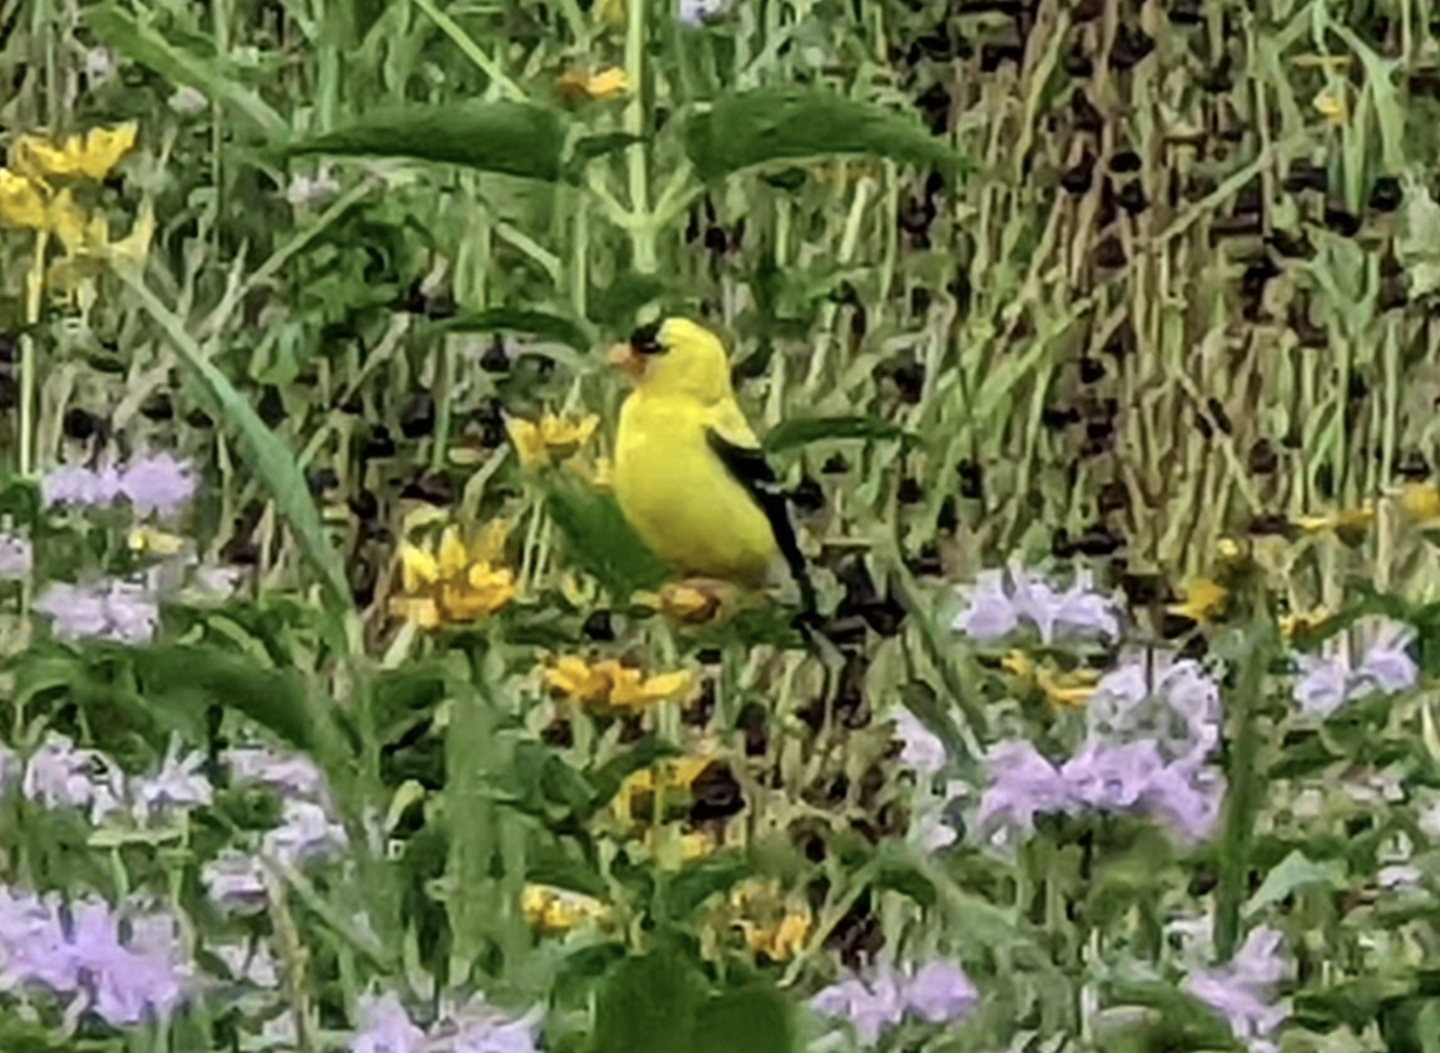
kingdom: Animalia
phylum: Chordata
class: Aves
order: Passeriformes
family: Fringillidae
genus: Spinus
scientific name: Spinus tristis
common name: American goldfinch
